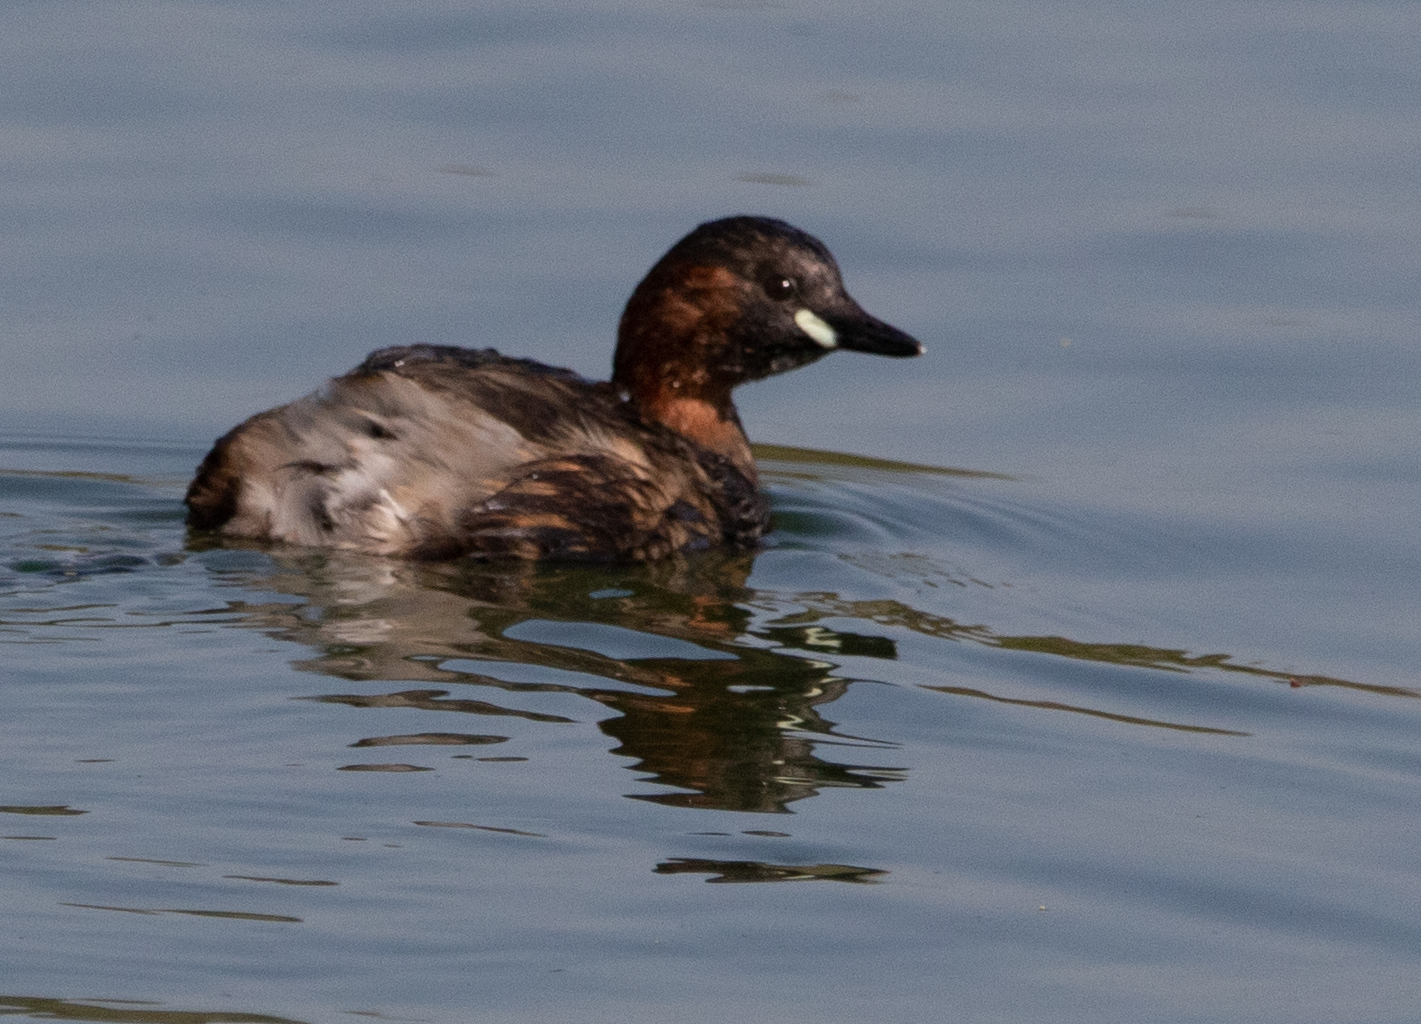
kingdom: Animalia
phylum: Chordata
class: Aves
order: Podicipediformes
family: Podicipedidae
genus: Tachybaptus
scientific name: Tachybaptus ruficollis
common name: Little grebe
